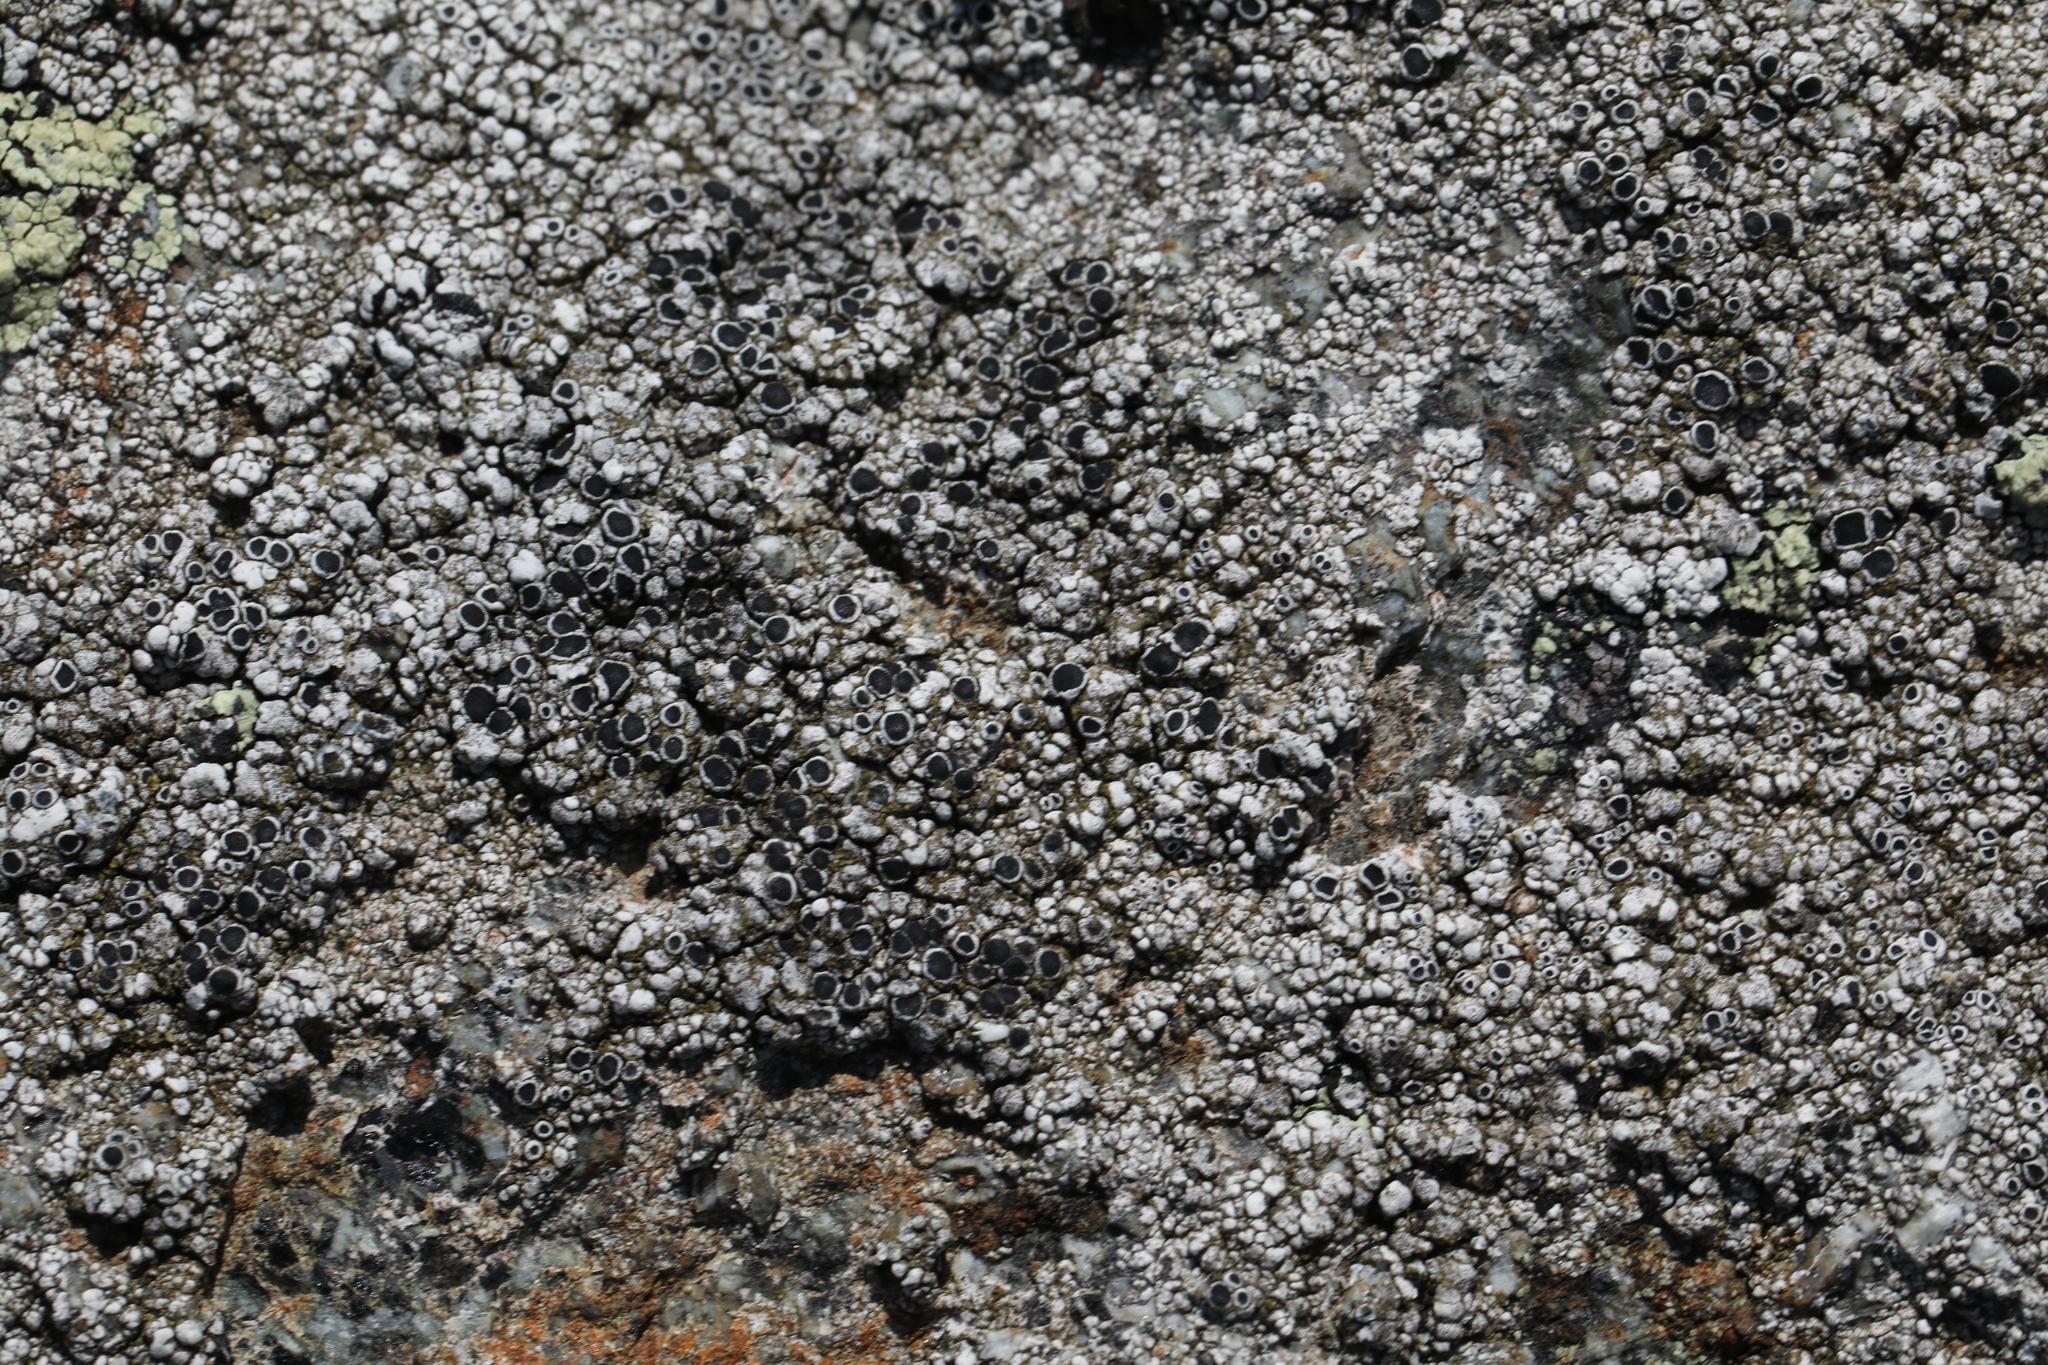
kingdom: Fungi
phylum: Ascomycota
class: Lecanoromycetes
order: Lecanorales
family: Lecanoraceae
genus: Lecanora
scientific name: Lecanora gangaleoides
